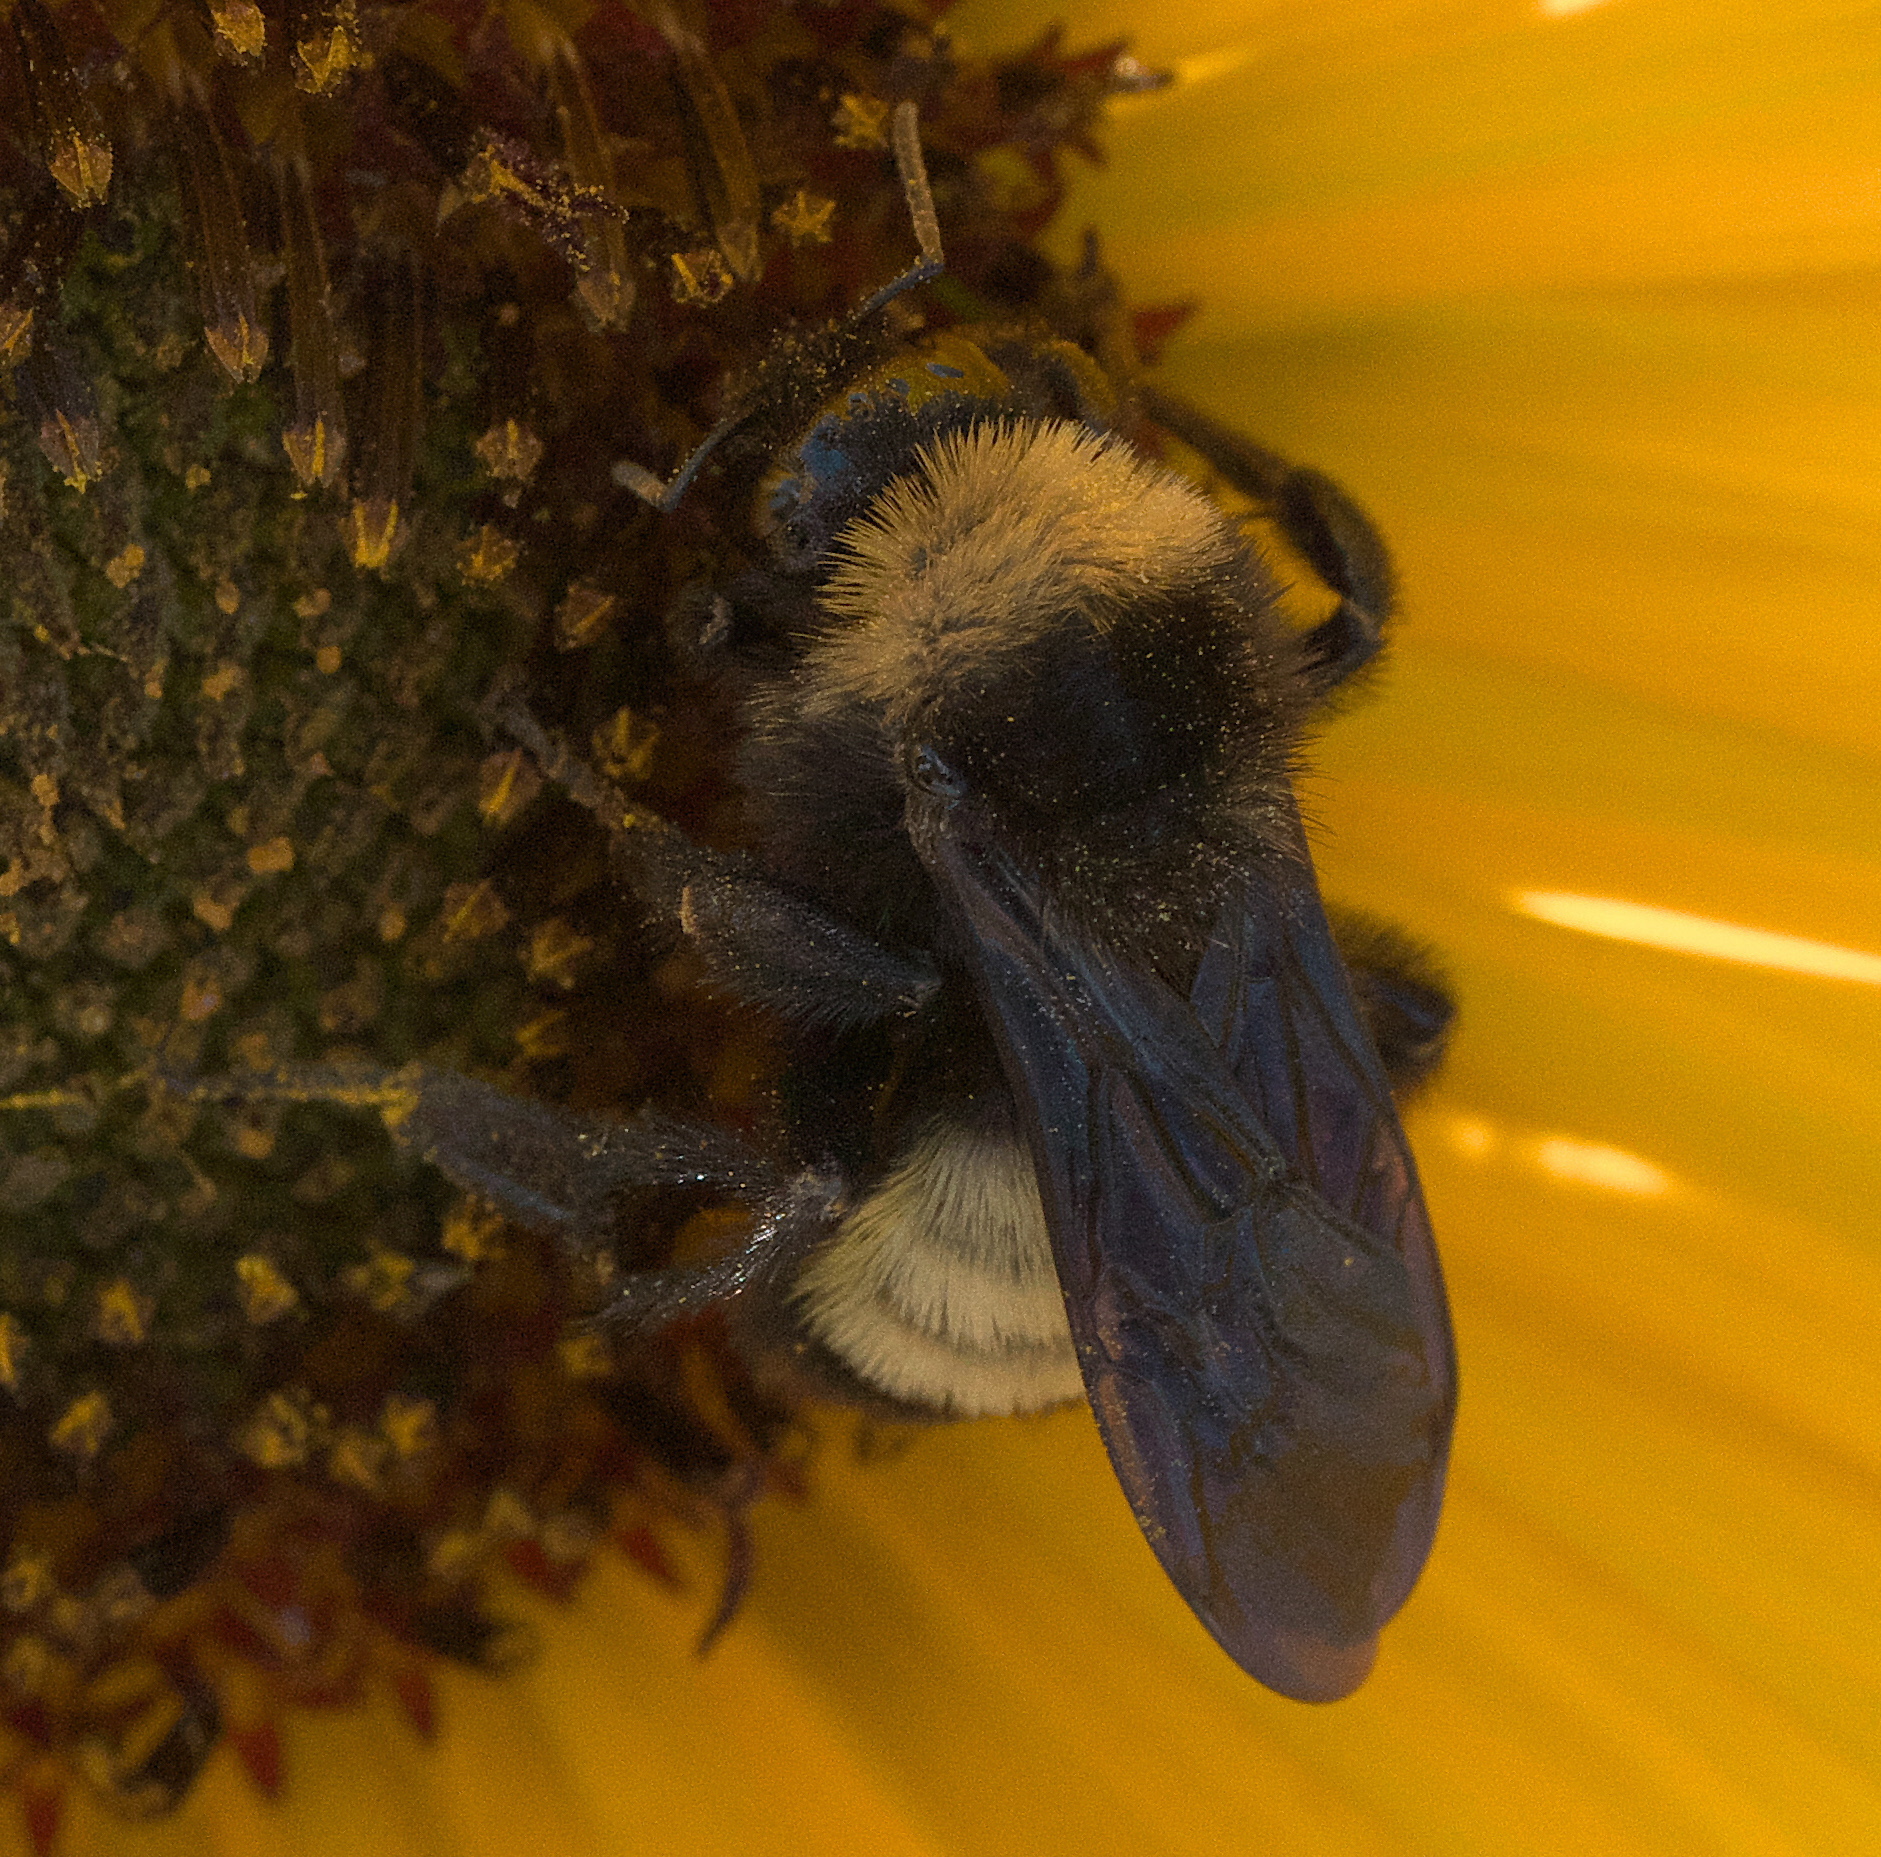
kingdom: Animalia
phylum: Arthropoda
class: Insecta
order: Hymenoptera
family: Apidae
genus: Bombus
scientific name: Bombus pensylvanicus
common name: Bumble bee
